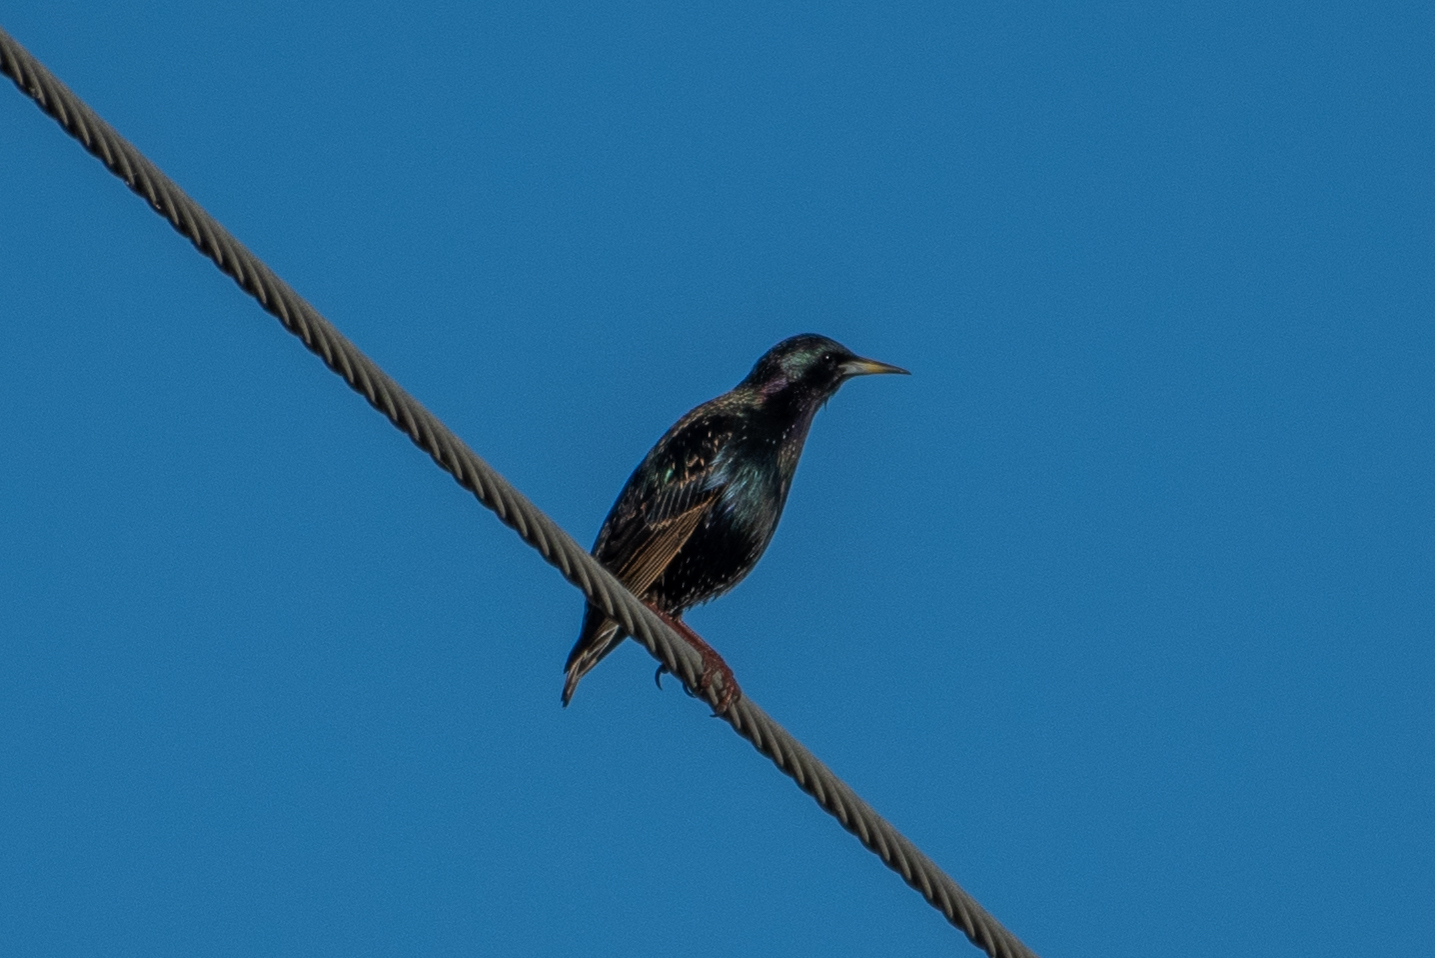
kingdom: Animalia
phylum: Chordata
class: Aves
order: Passeriformes
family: Sturnidae
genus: Sturnus
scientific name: Sturnus vulgaris
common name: Common starling
